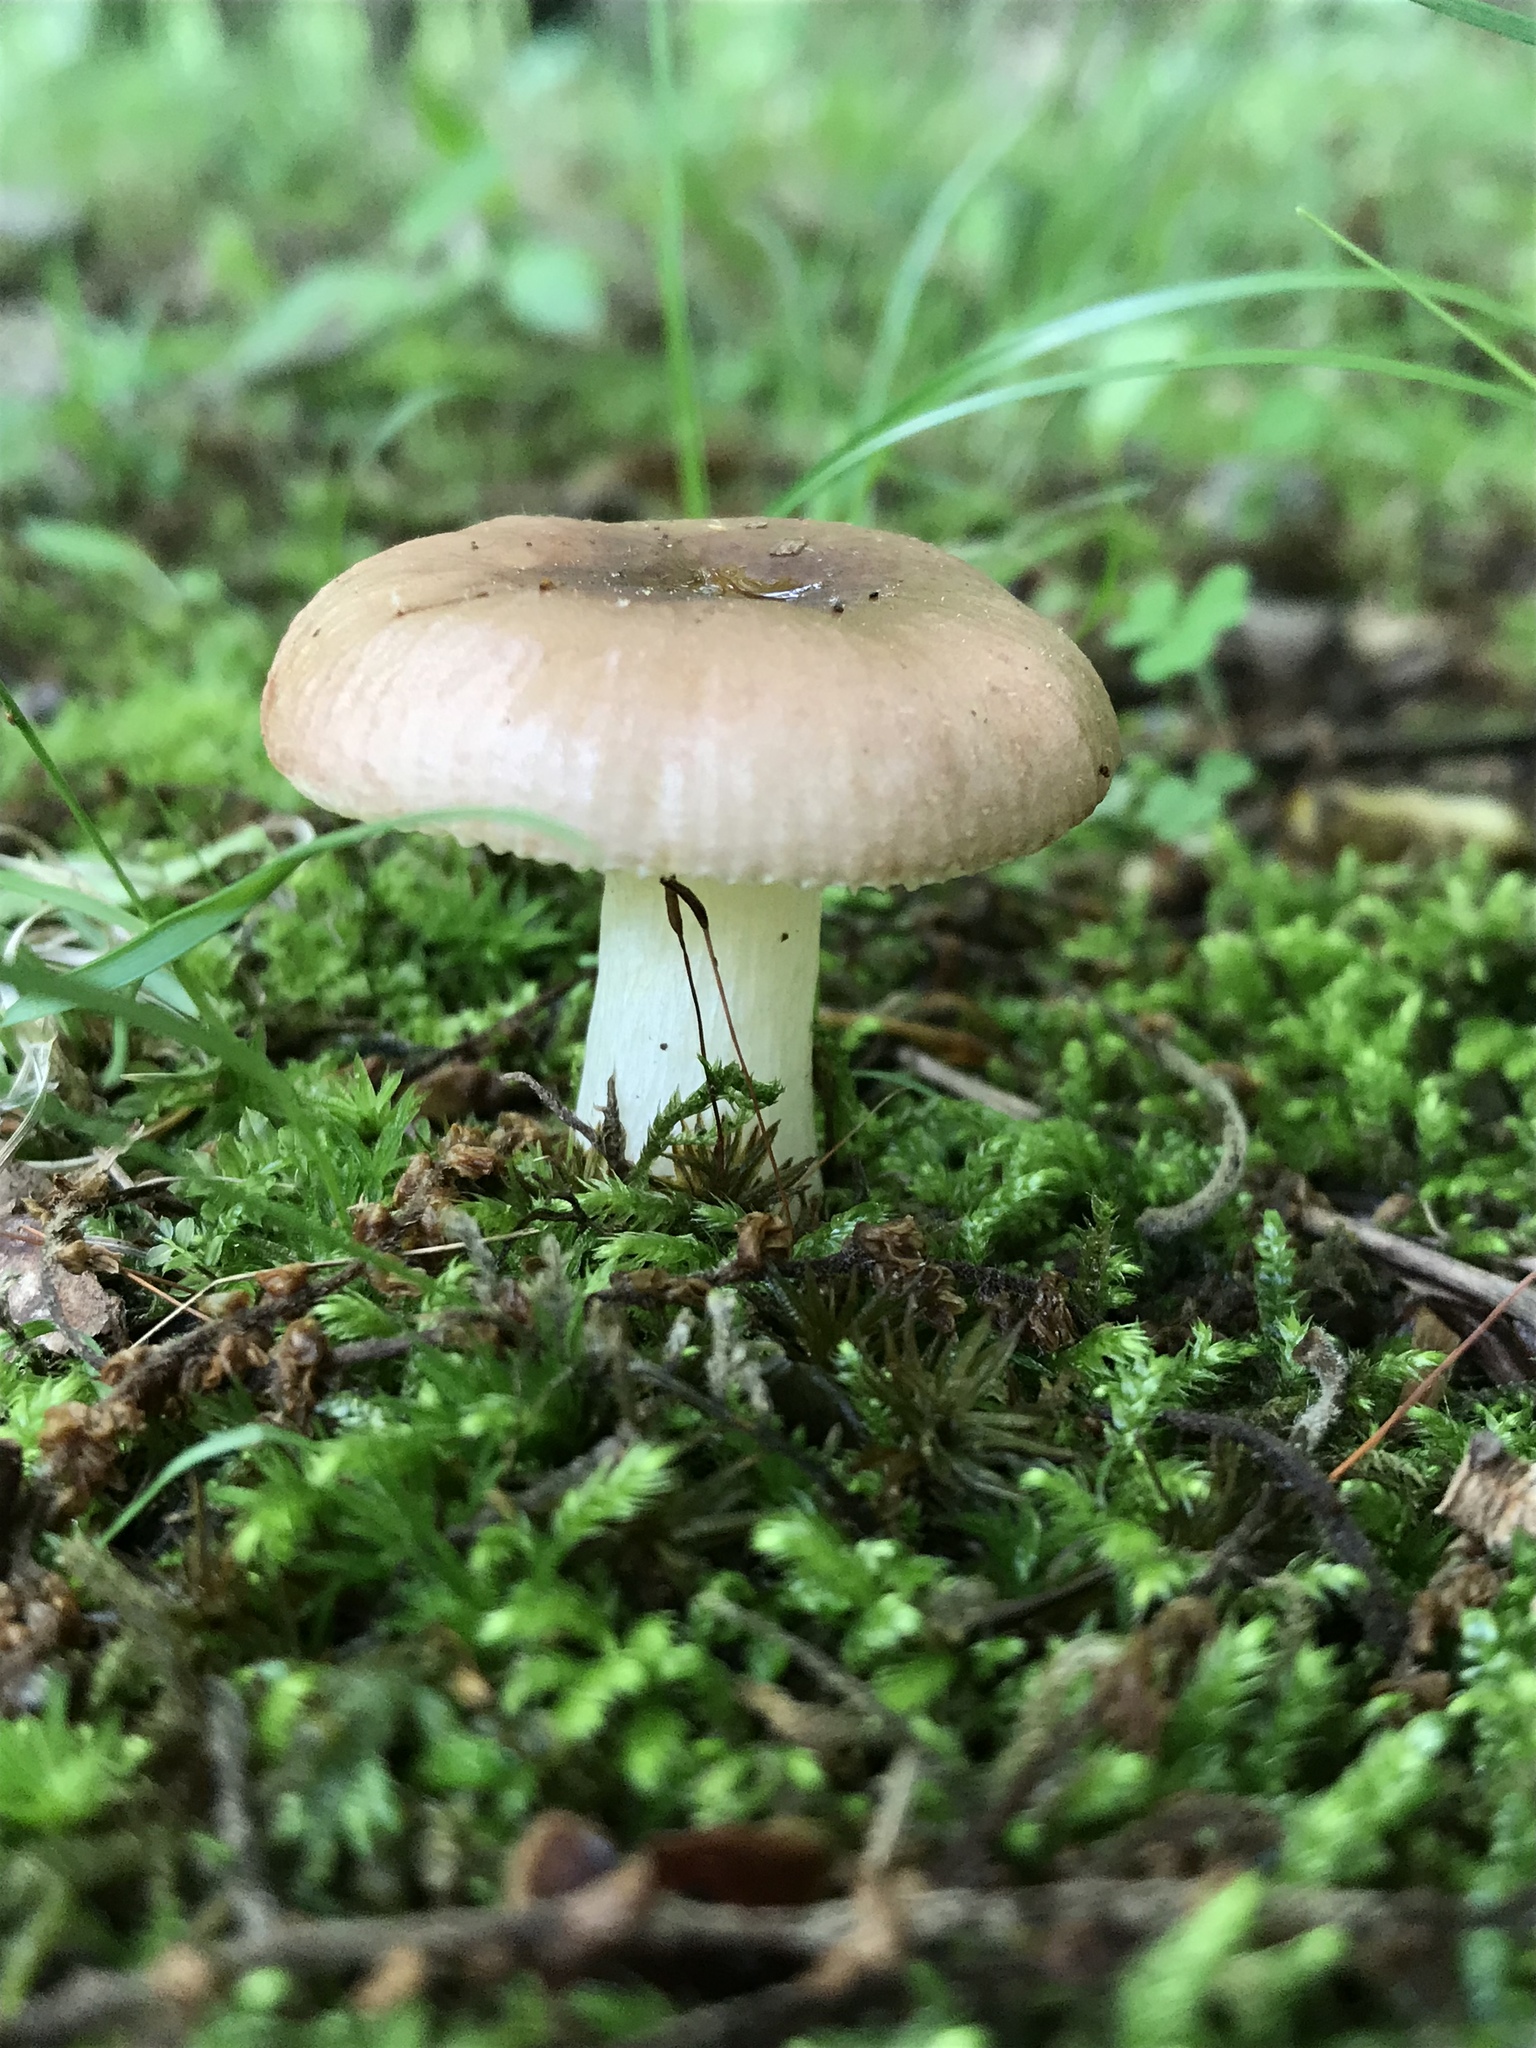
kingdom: Fungi
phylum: Basidiomycota
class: Agaricomycetes
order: Russulales
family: Russulaceae
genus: Russula
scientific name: Russula cremeirosea
